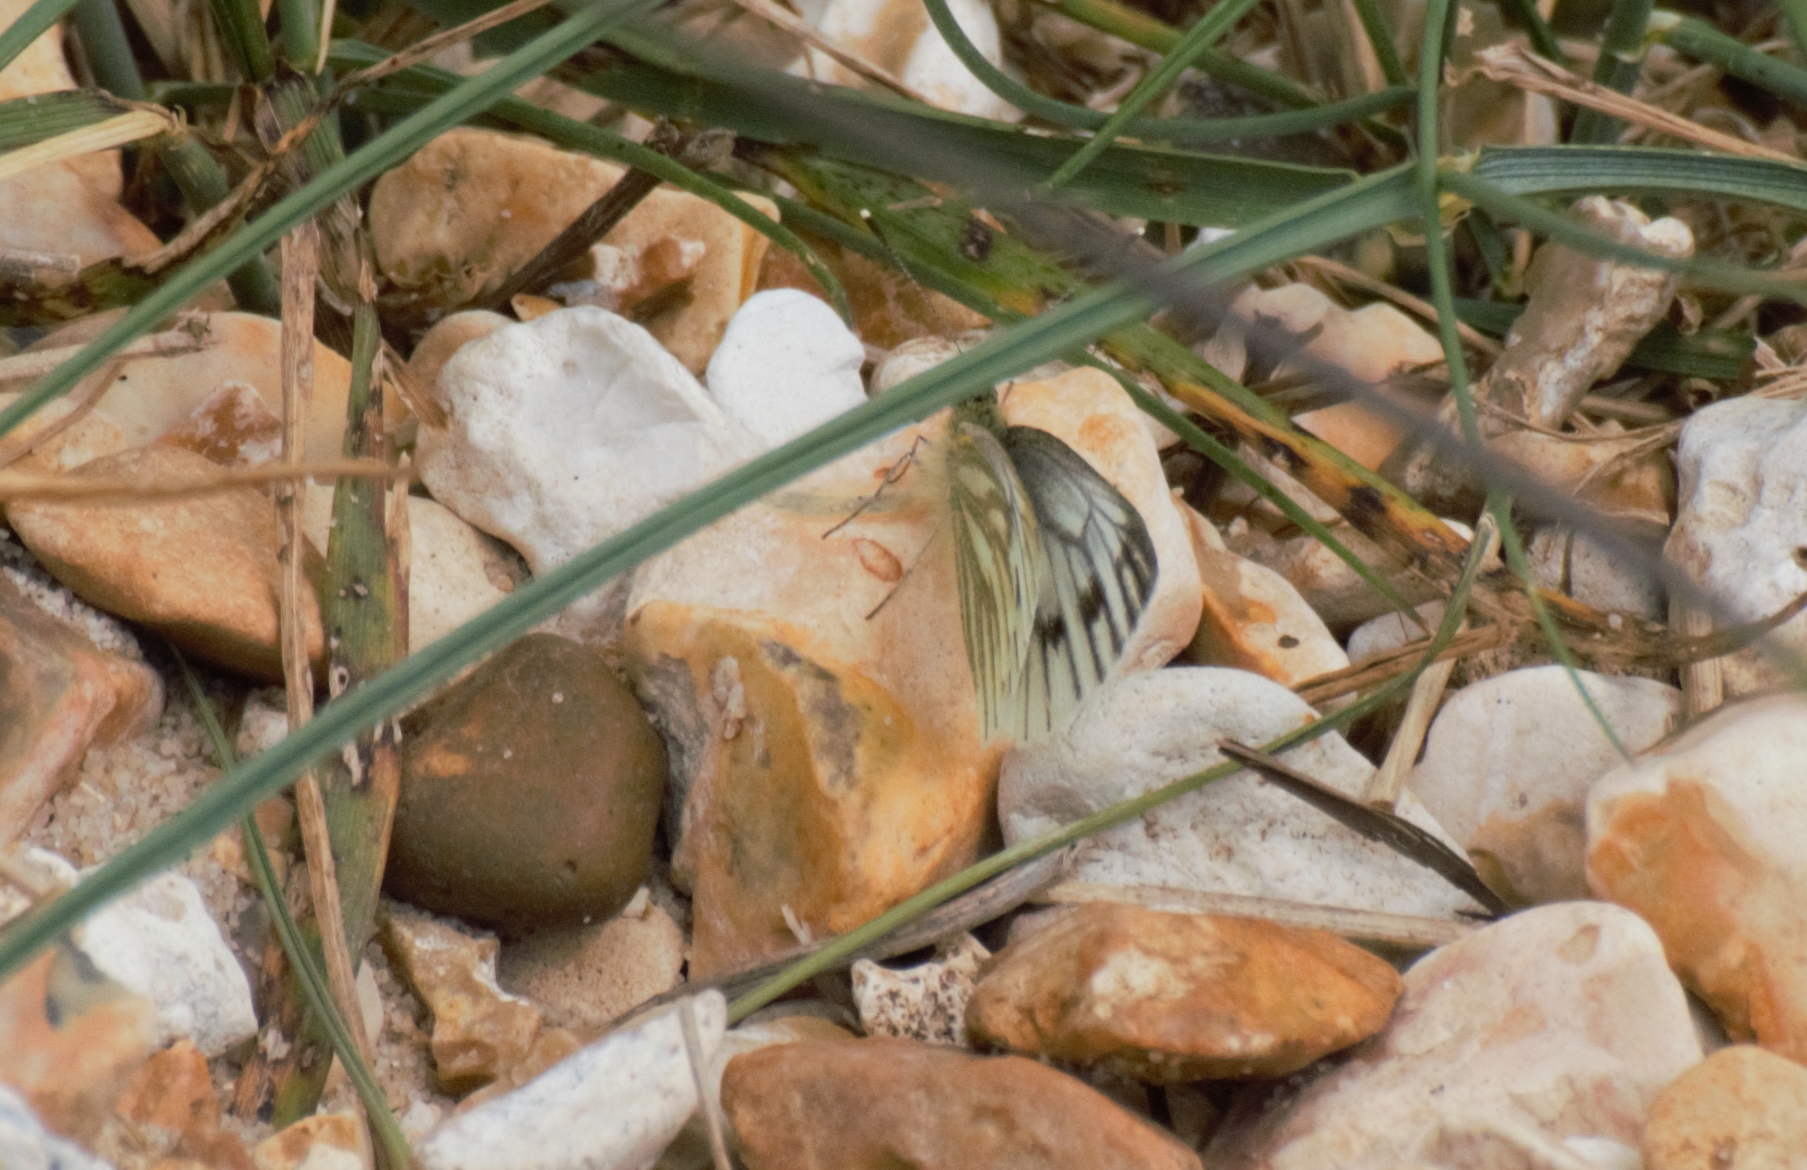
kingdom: Animalia
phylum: Arthropoda
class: Insecta
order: Lepidoptera
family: Pieridae
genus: Pieris
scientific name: Pieris napi
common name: Green-veined white
